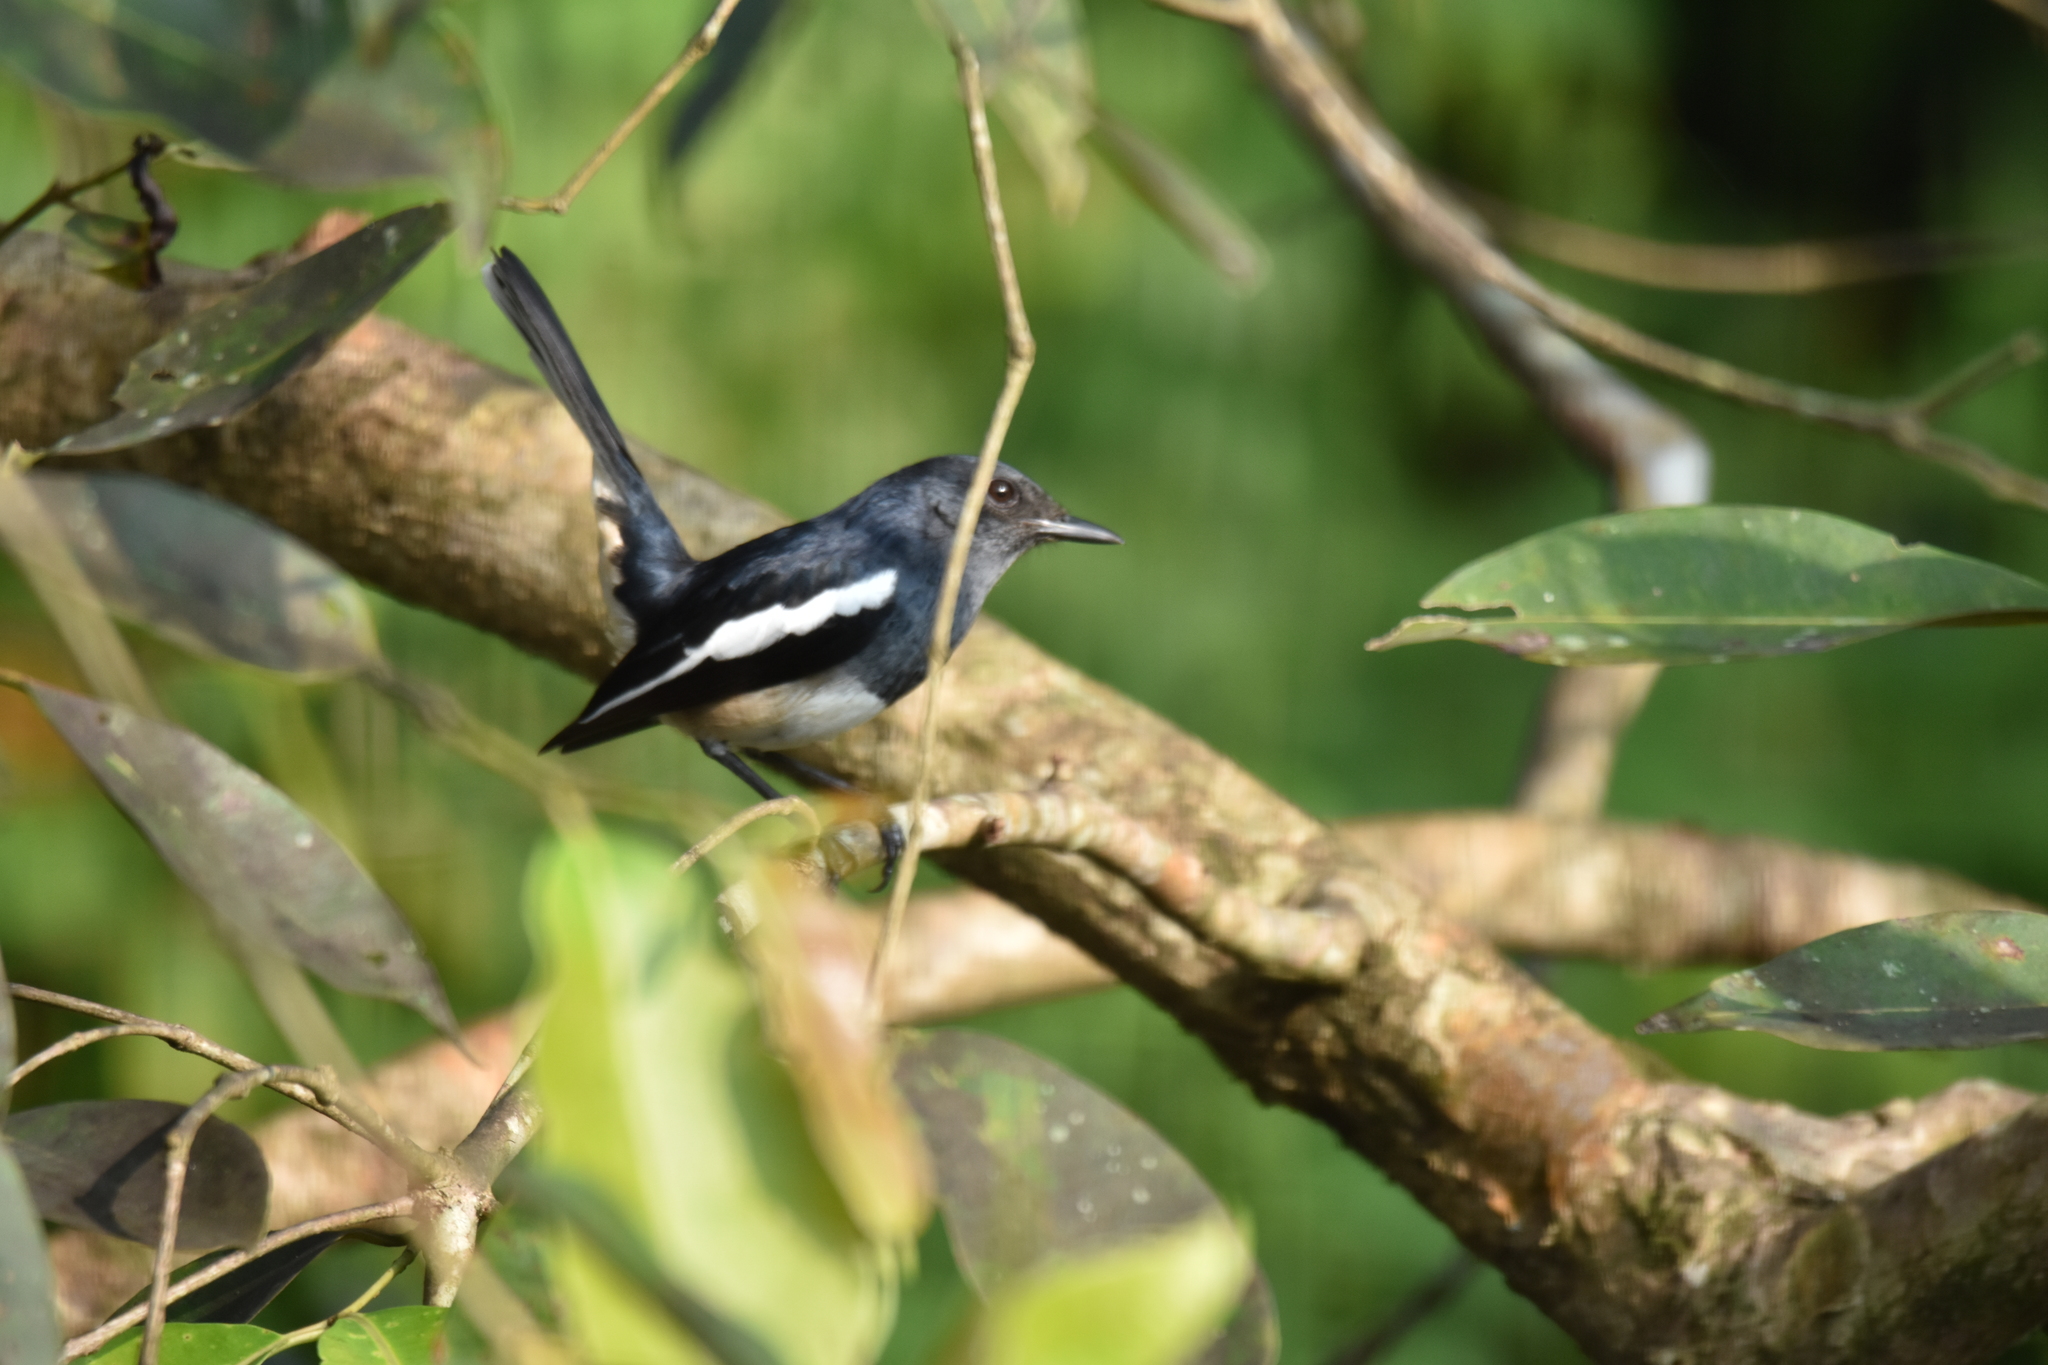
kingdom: Animalia
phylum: Chordata
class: Aves
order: Passeriformes
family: Muscicapidae
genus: Copsychus
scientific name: Copsychus saularis
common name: Oriental magpie-robin
